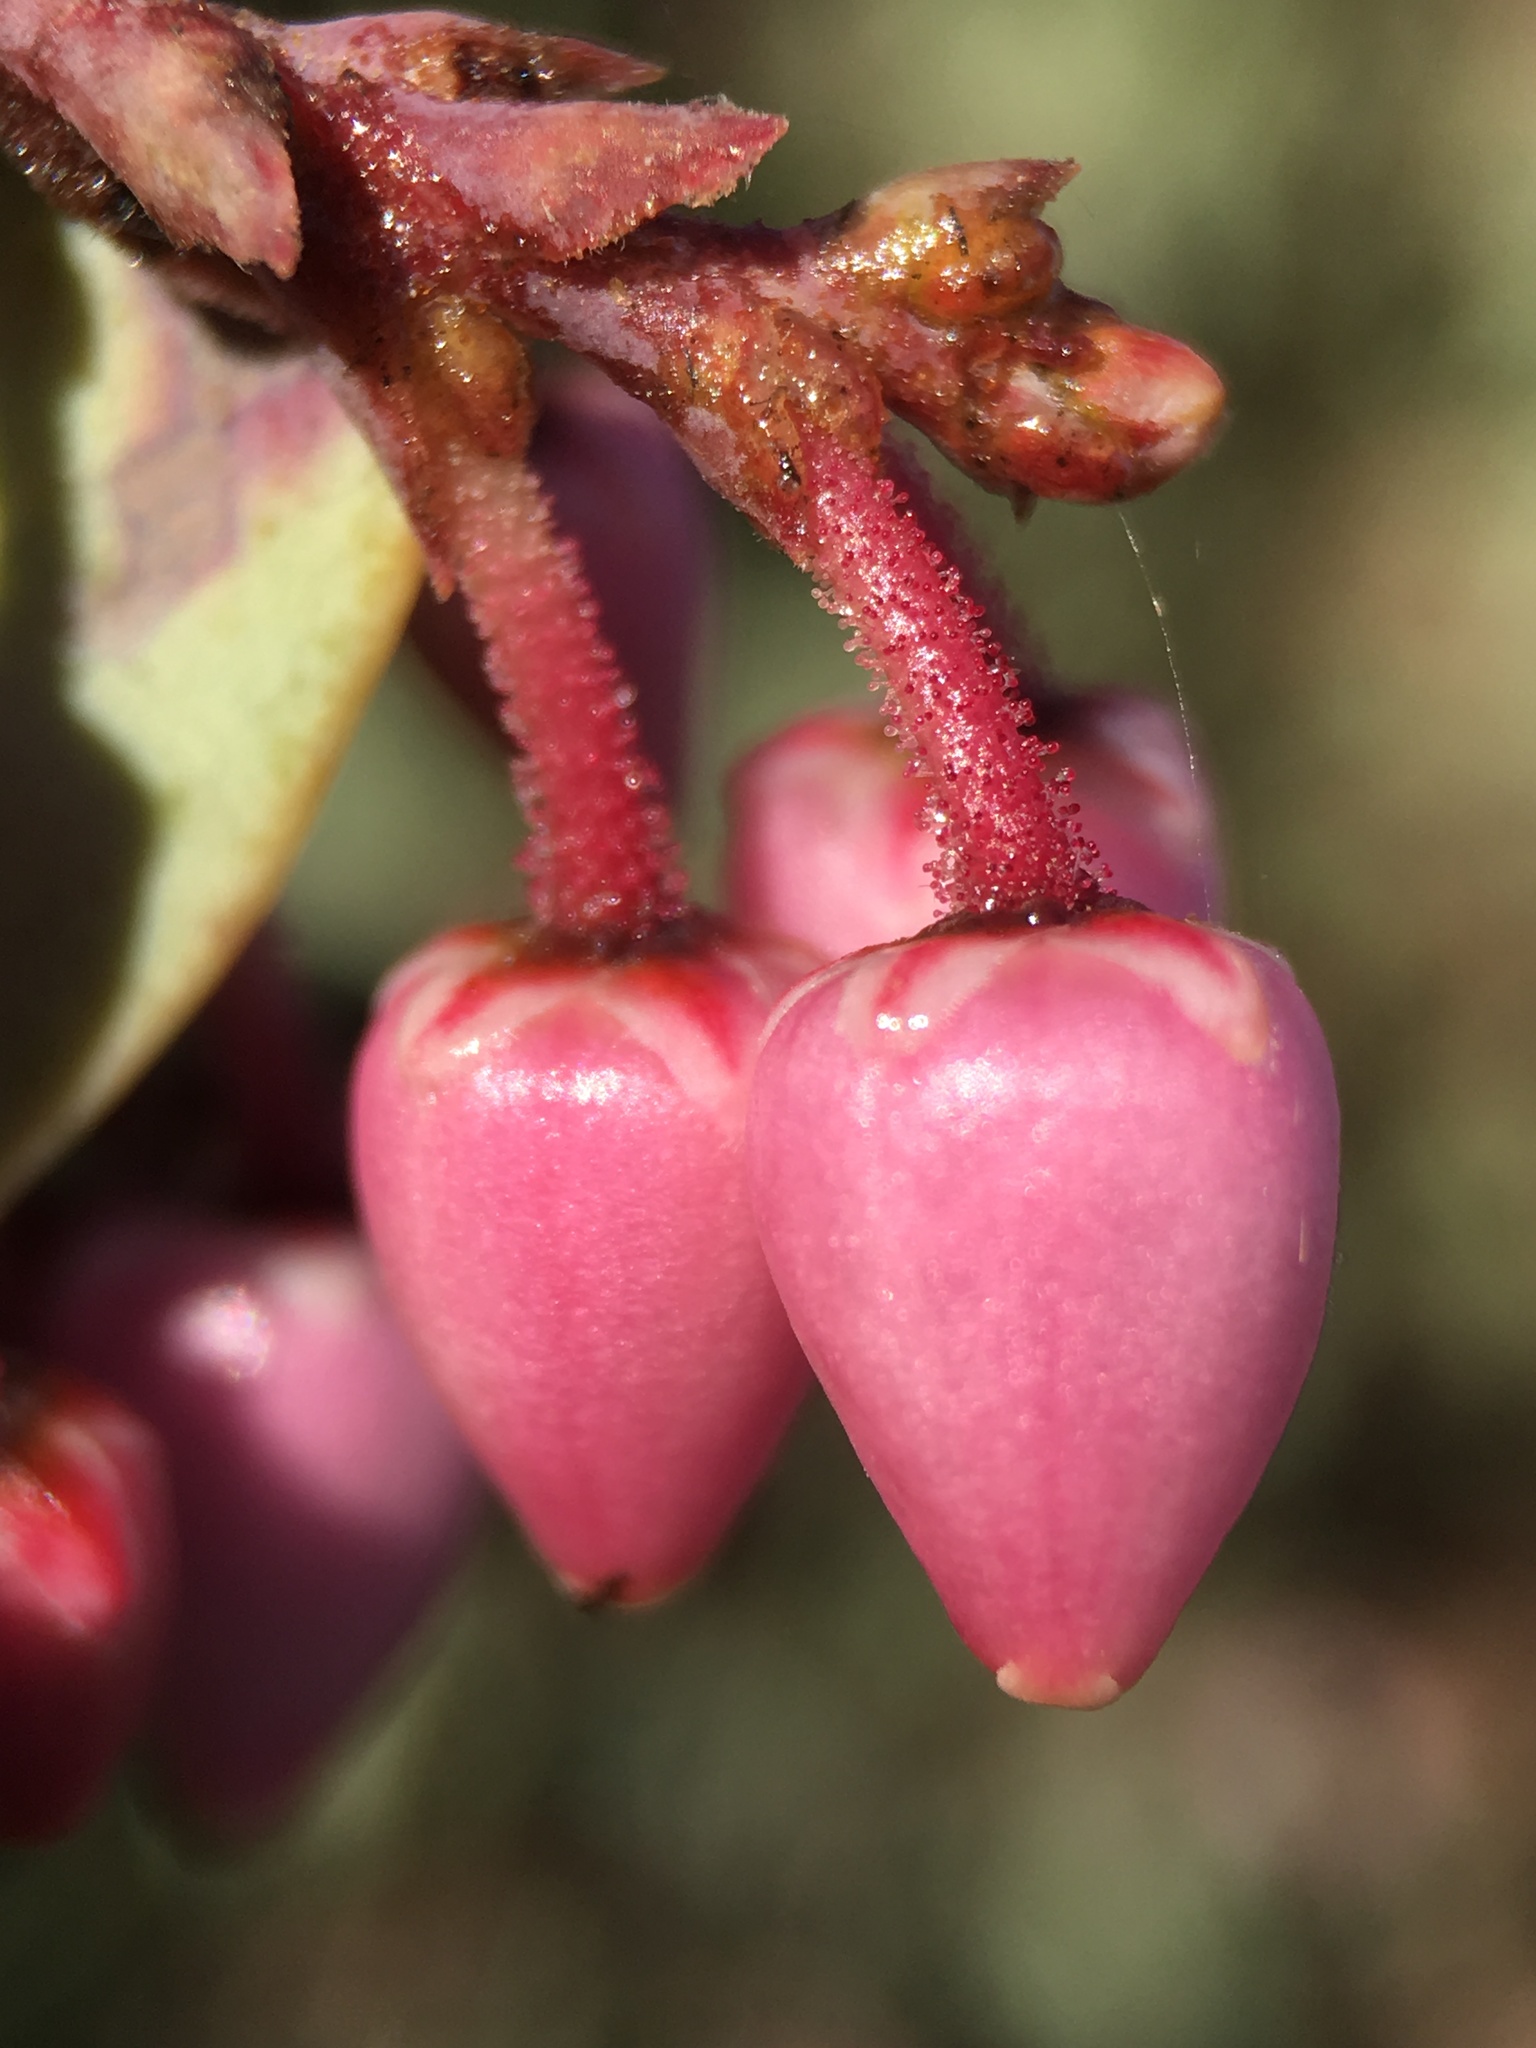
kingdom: Plantae
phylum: Tracheophyta
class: Magnoliopsida
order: Ericales
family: Ericaceae
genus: Arctostaphylos
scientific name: Arctostaphylos viscida
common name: White-leaf manzanita
